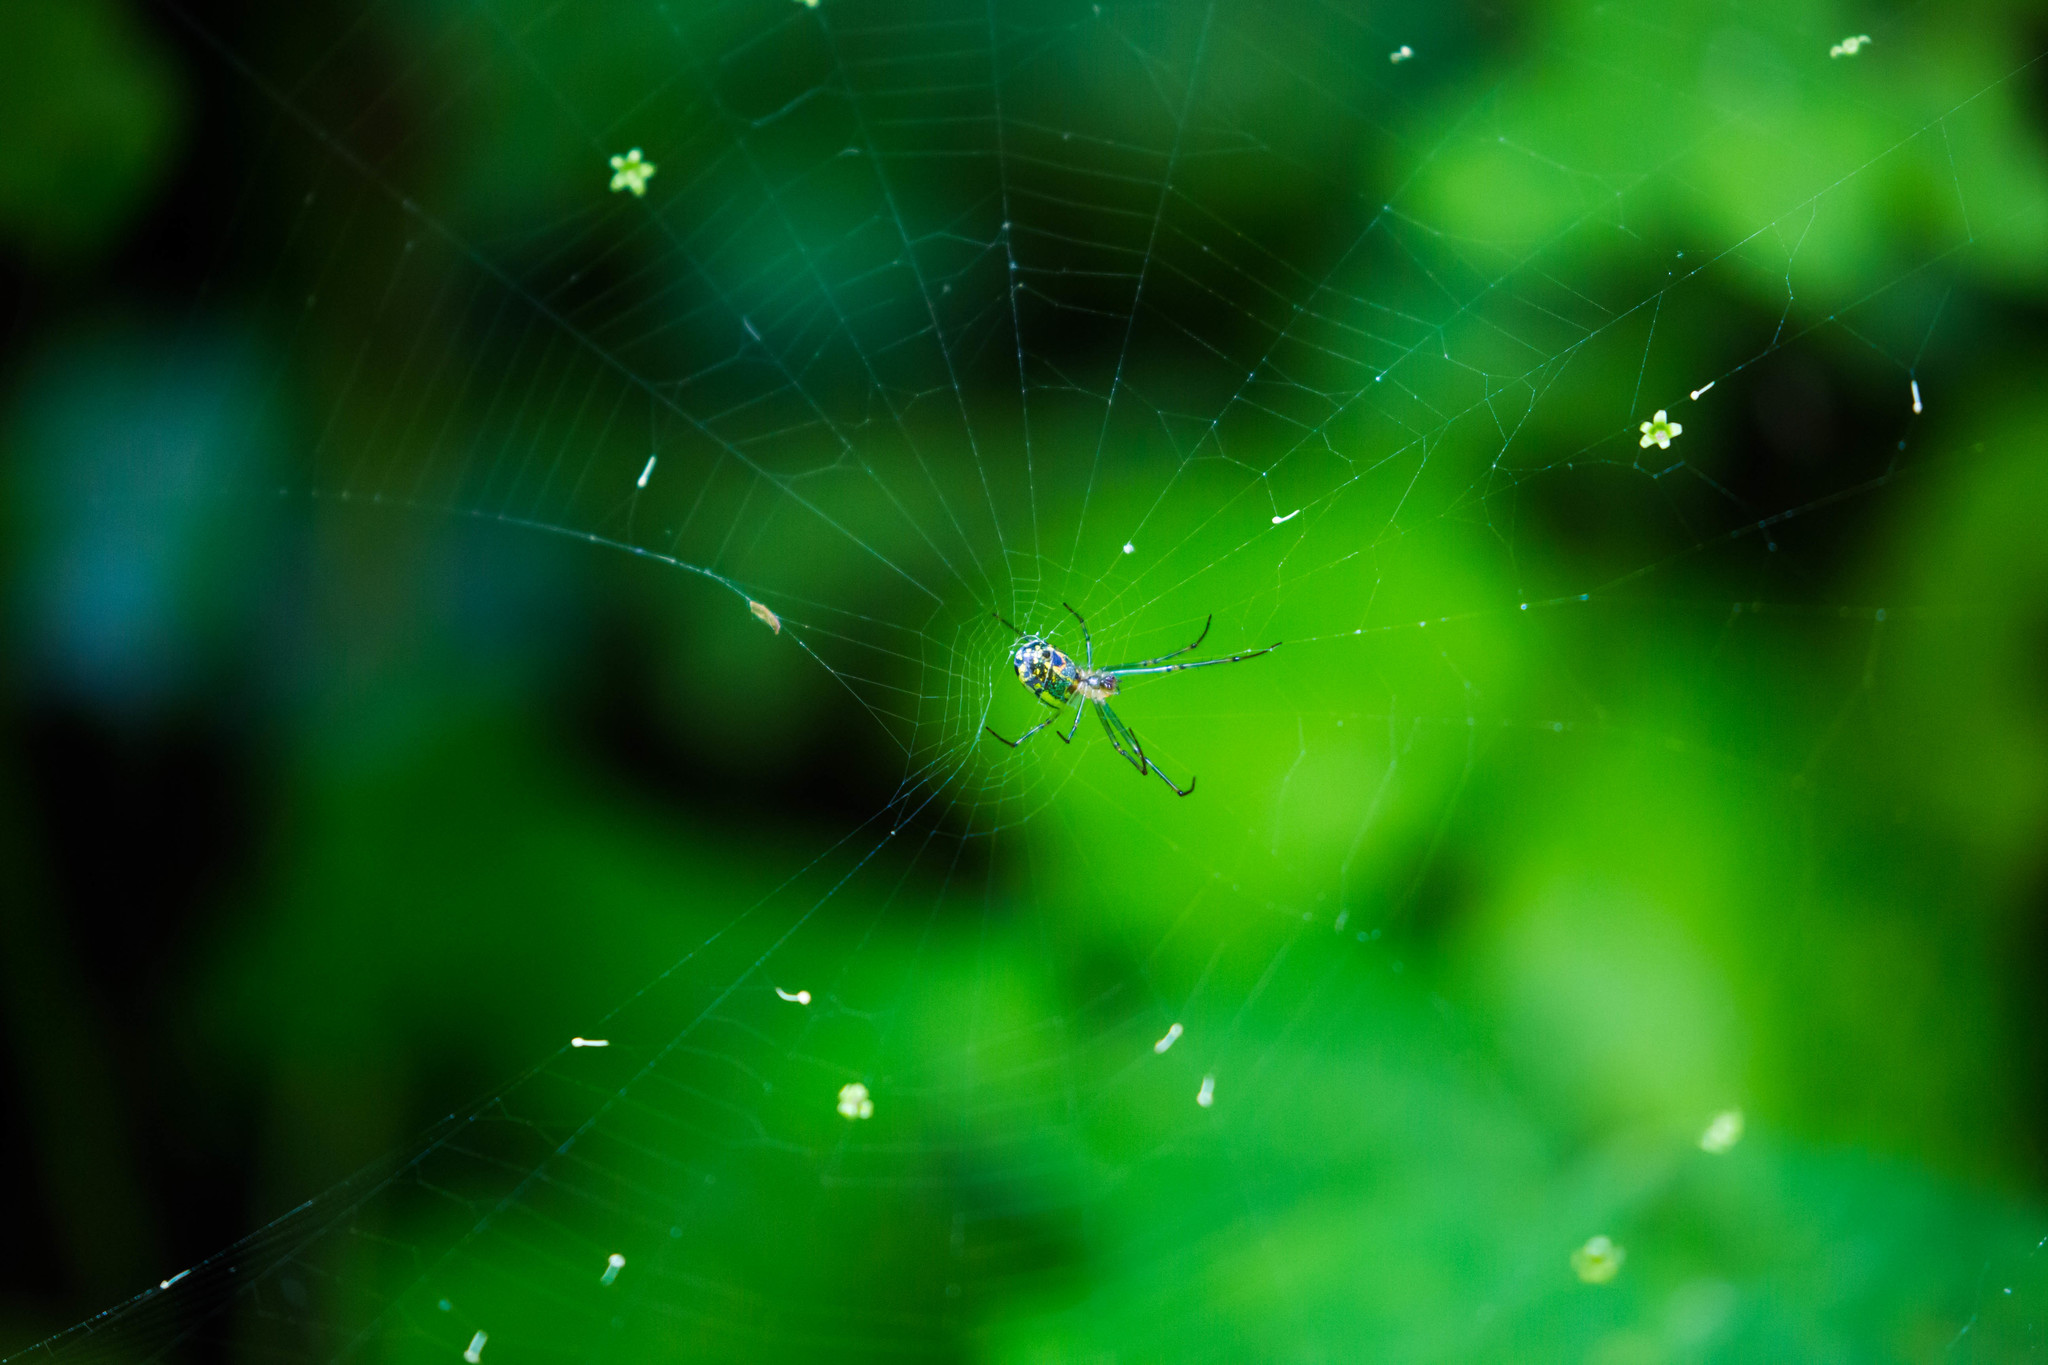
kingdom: Animalia
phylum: Arthropoda
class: Arachnida
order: Araneae
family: Tetragnathidae
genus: Leucauge
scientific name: Leucauge venusta
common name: Longjawed orb weavers
